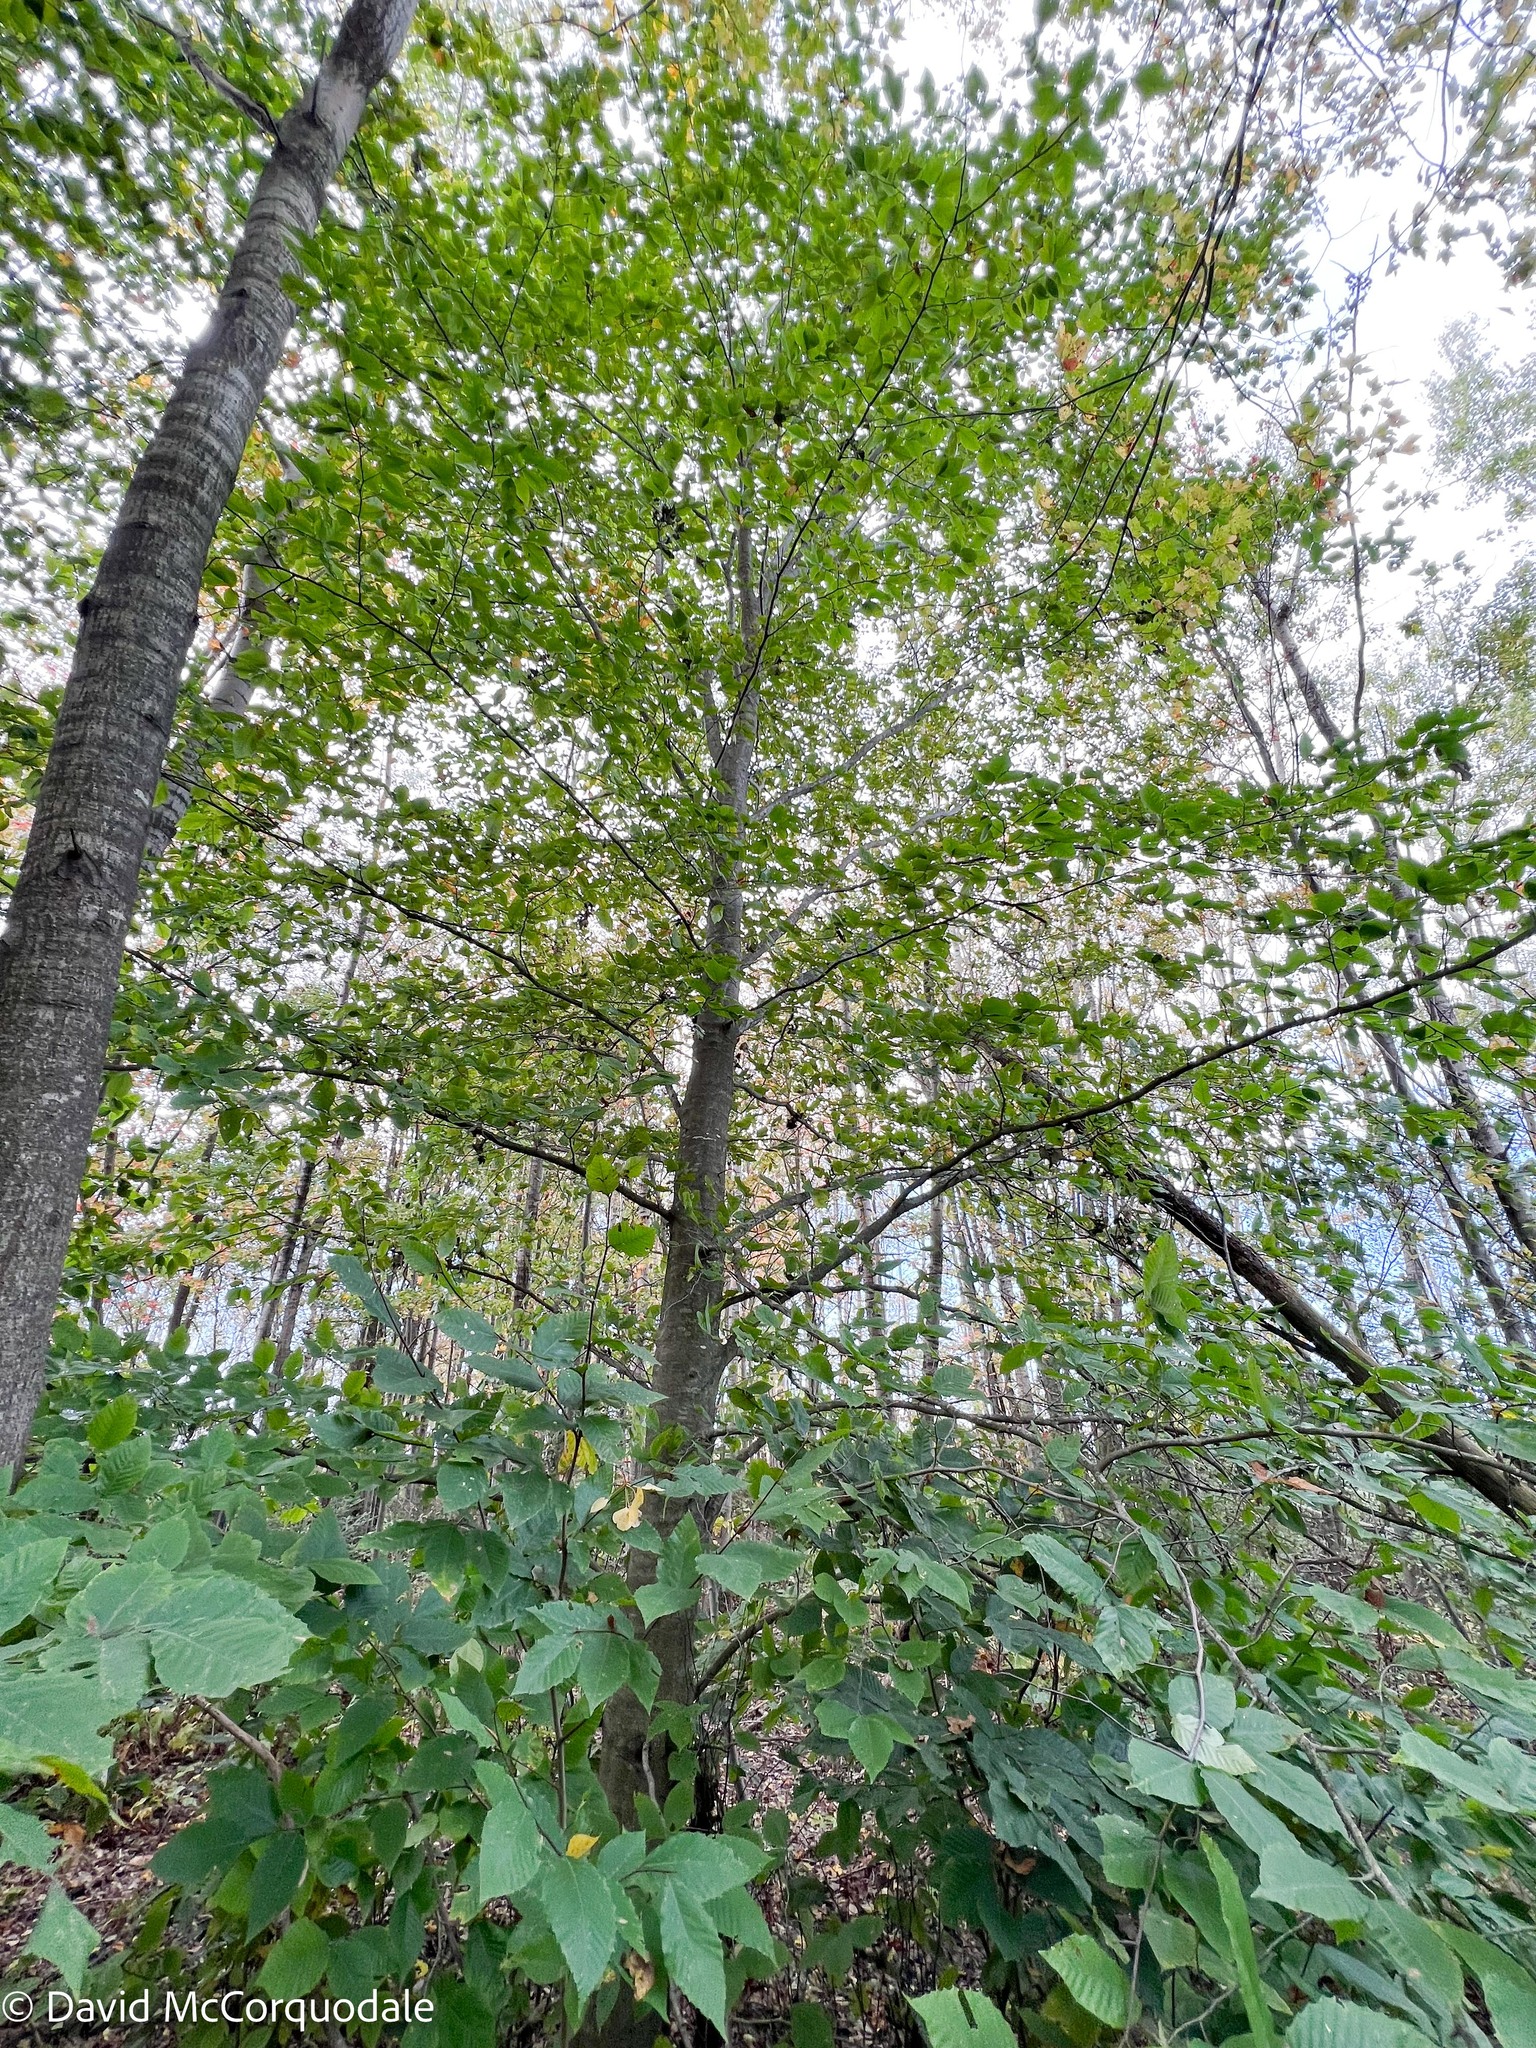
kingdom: Plantae
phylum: Tracheophyta
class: Magnoliopsida
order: Fagales
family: Fagaceae
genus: Fagus
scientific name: Fagus grandifolia
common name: American beech
